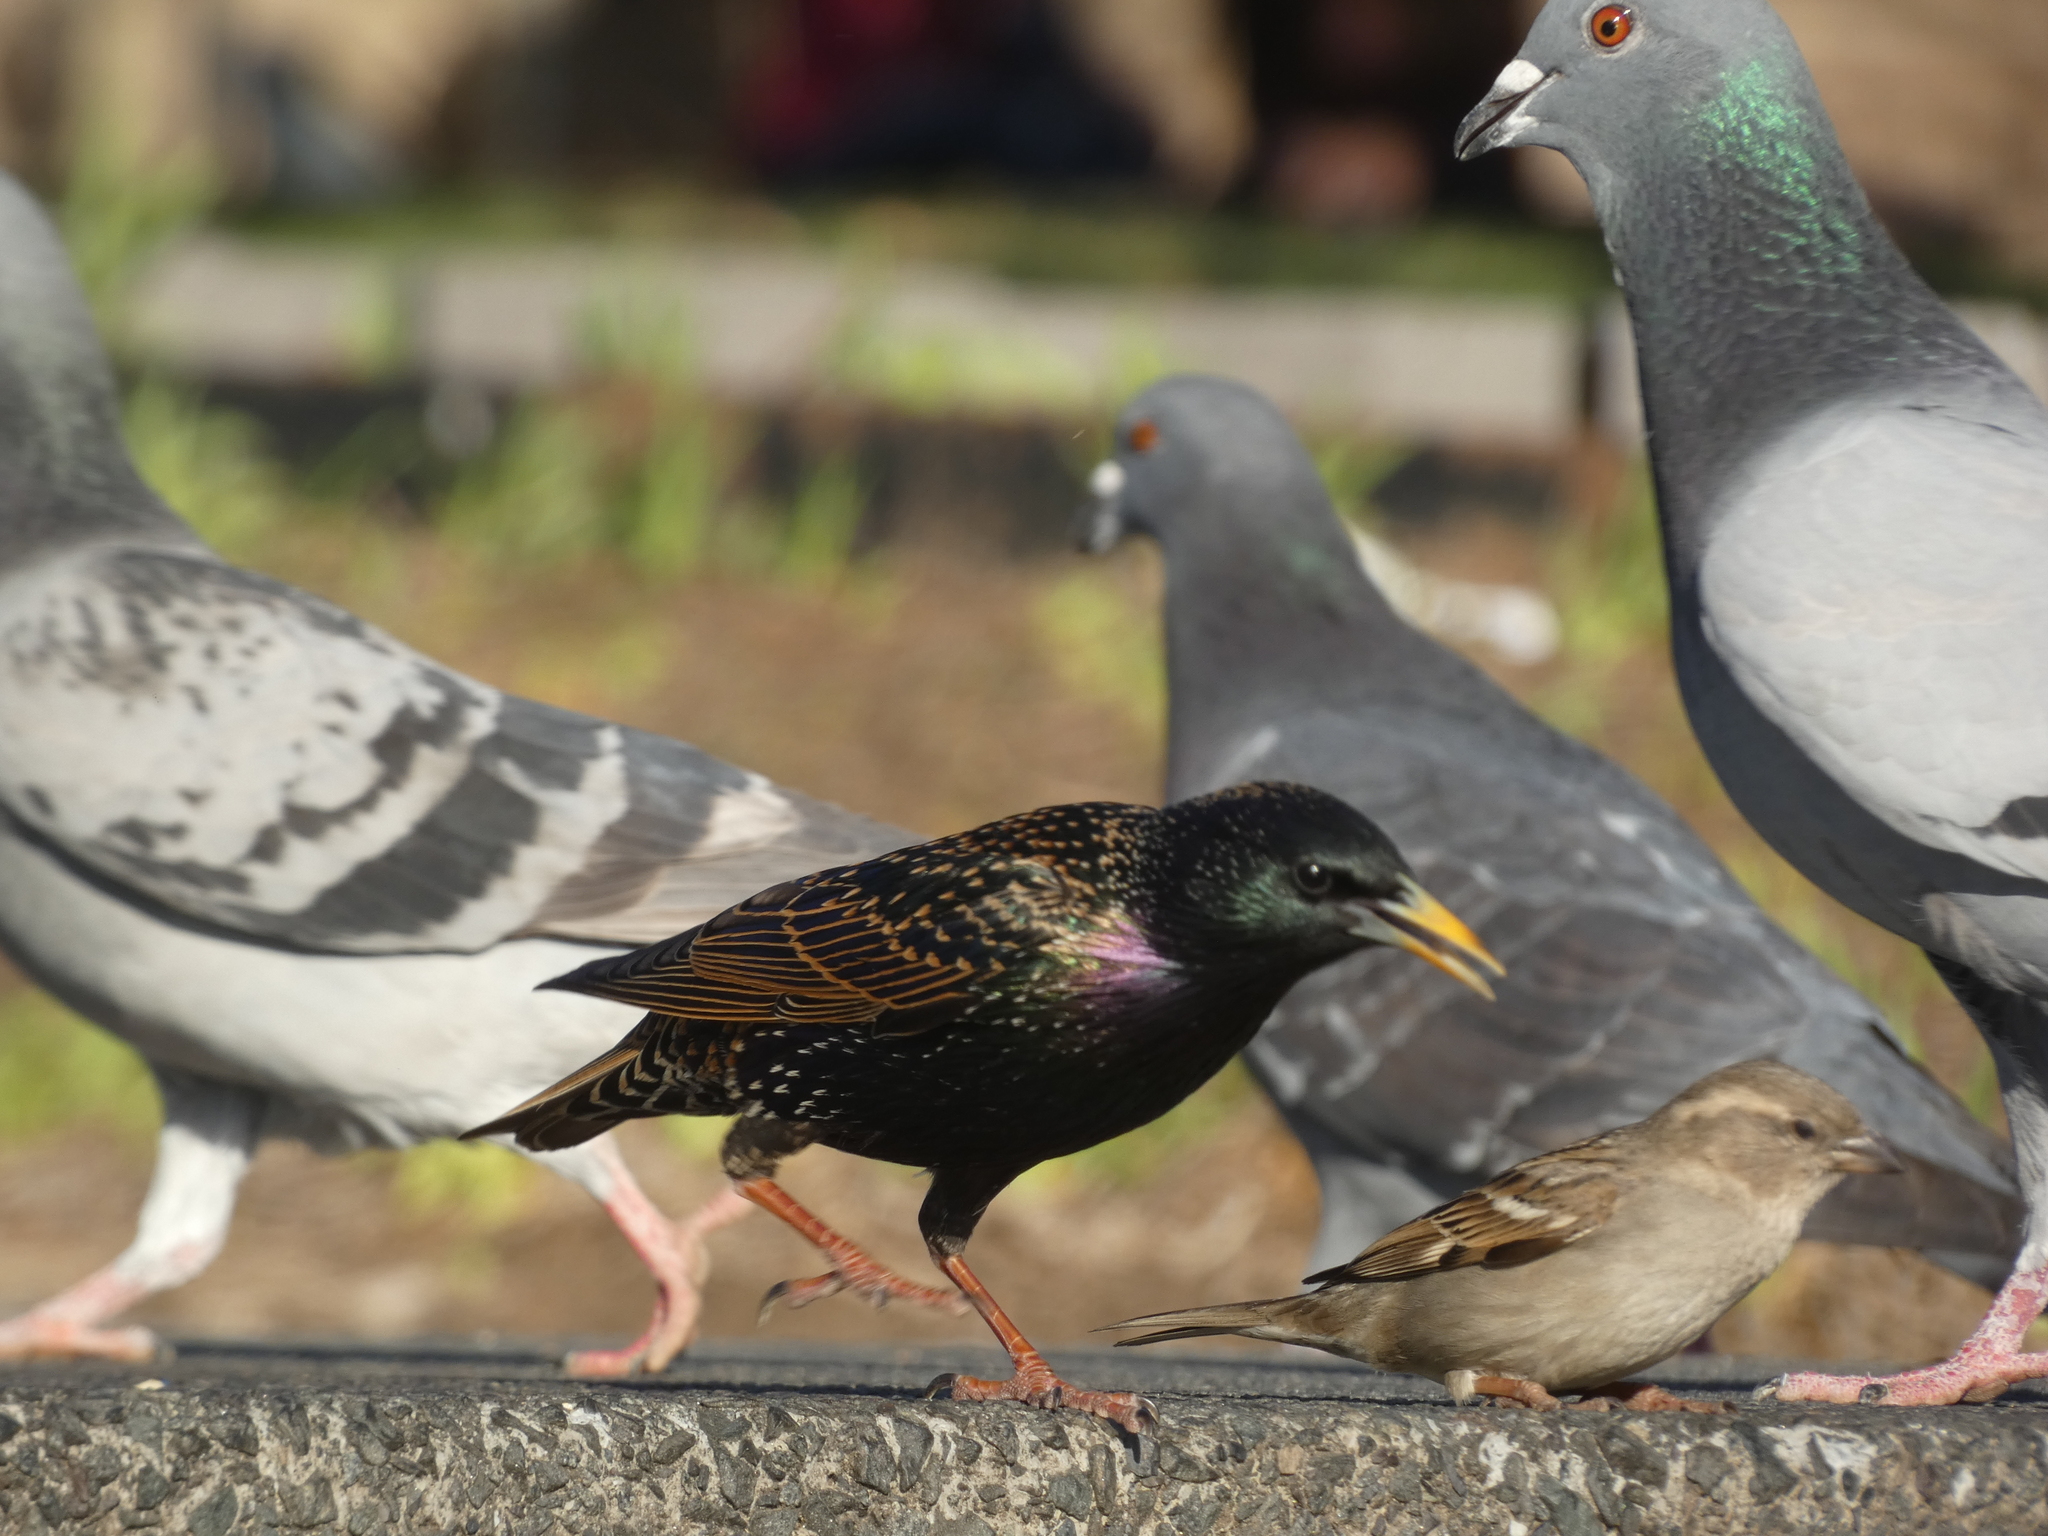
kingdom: Animalia
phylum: Chordata
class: Aves
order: Passeriformes
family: Sturnidae
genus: Sturnus
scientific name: Sturnus vulgaris
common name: Common starling
